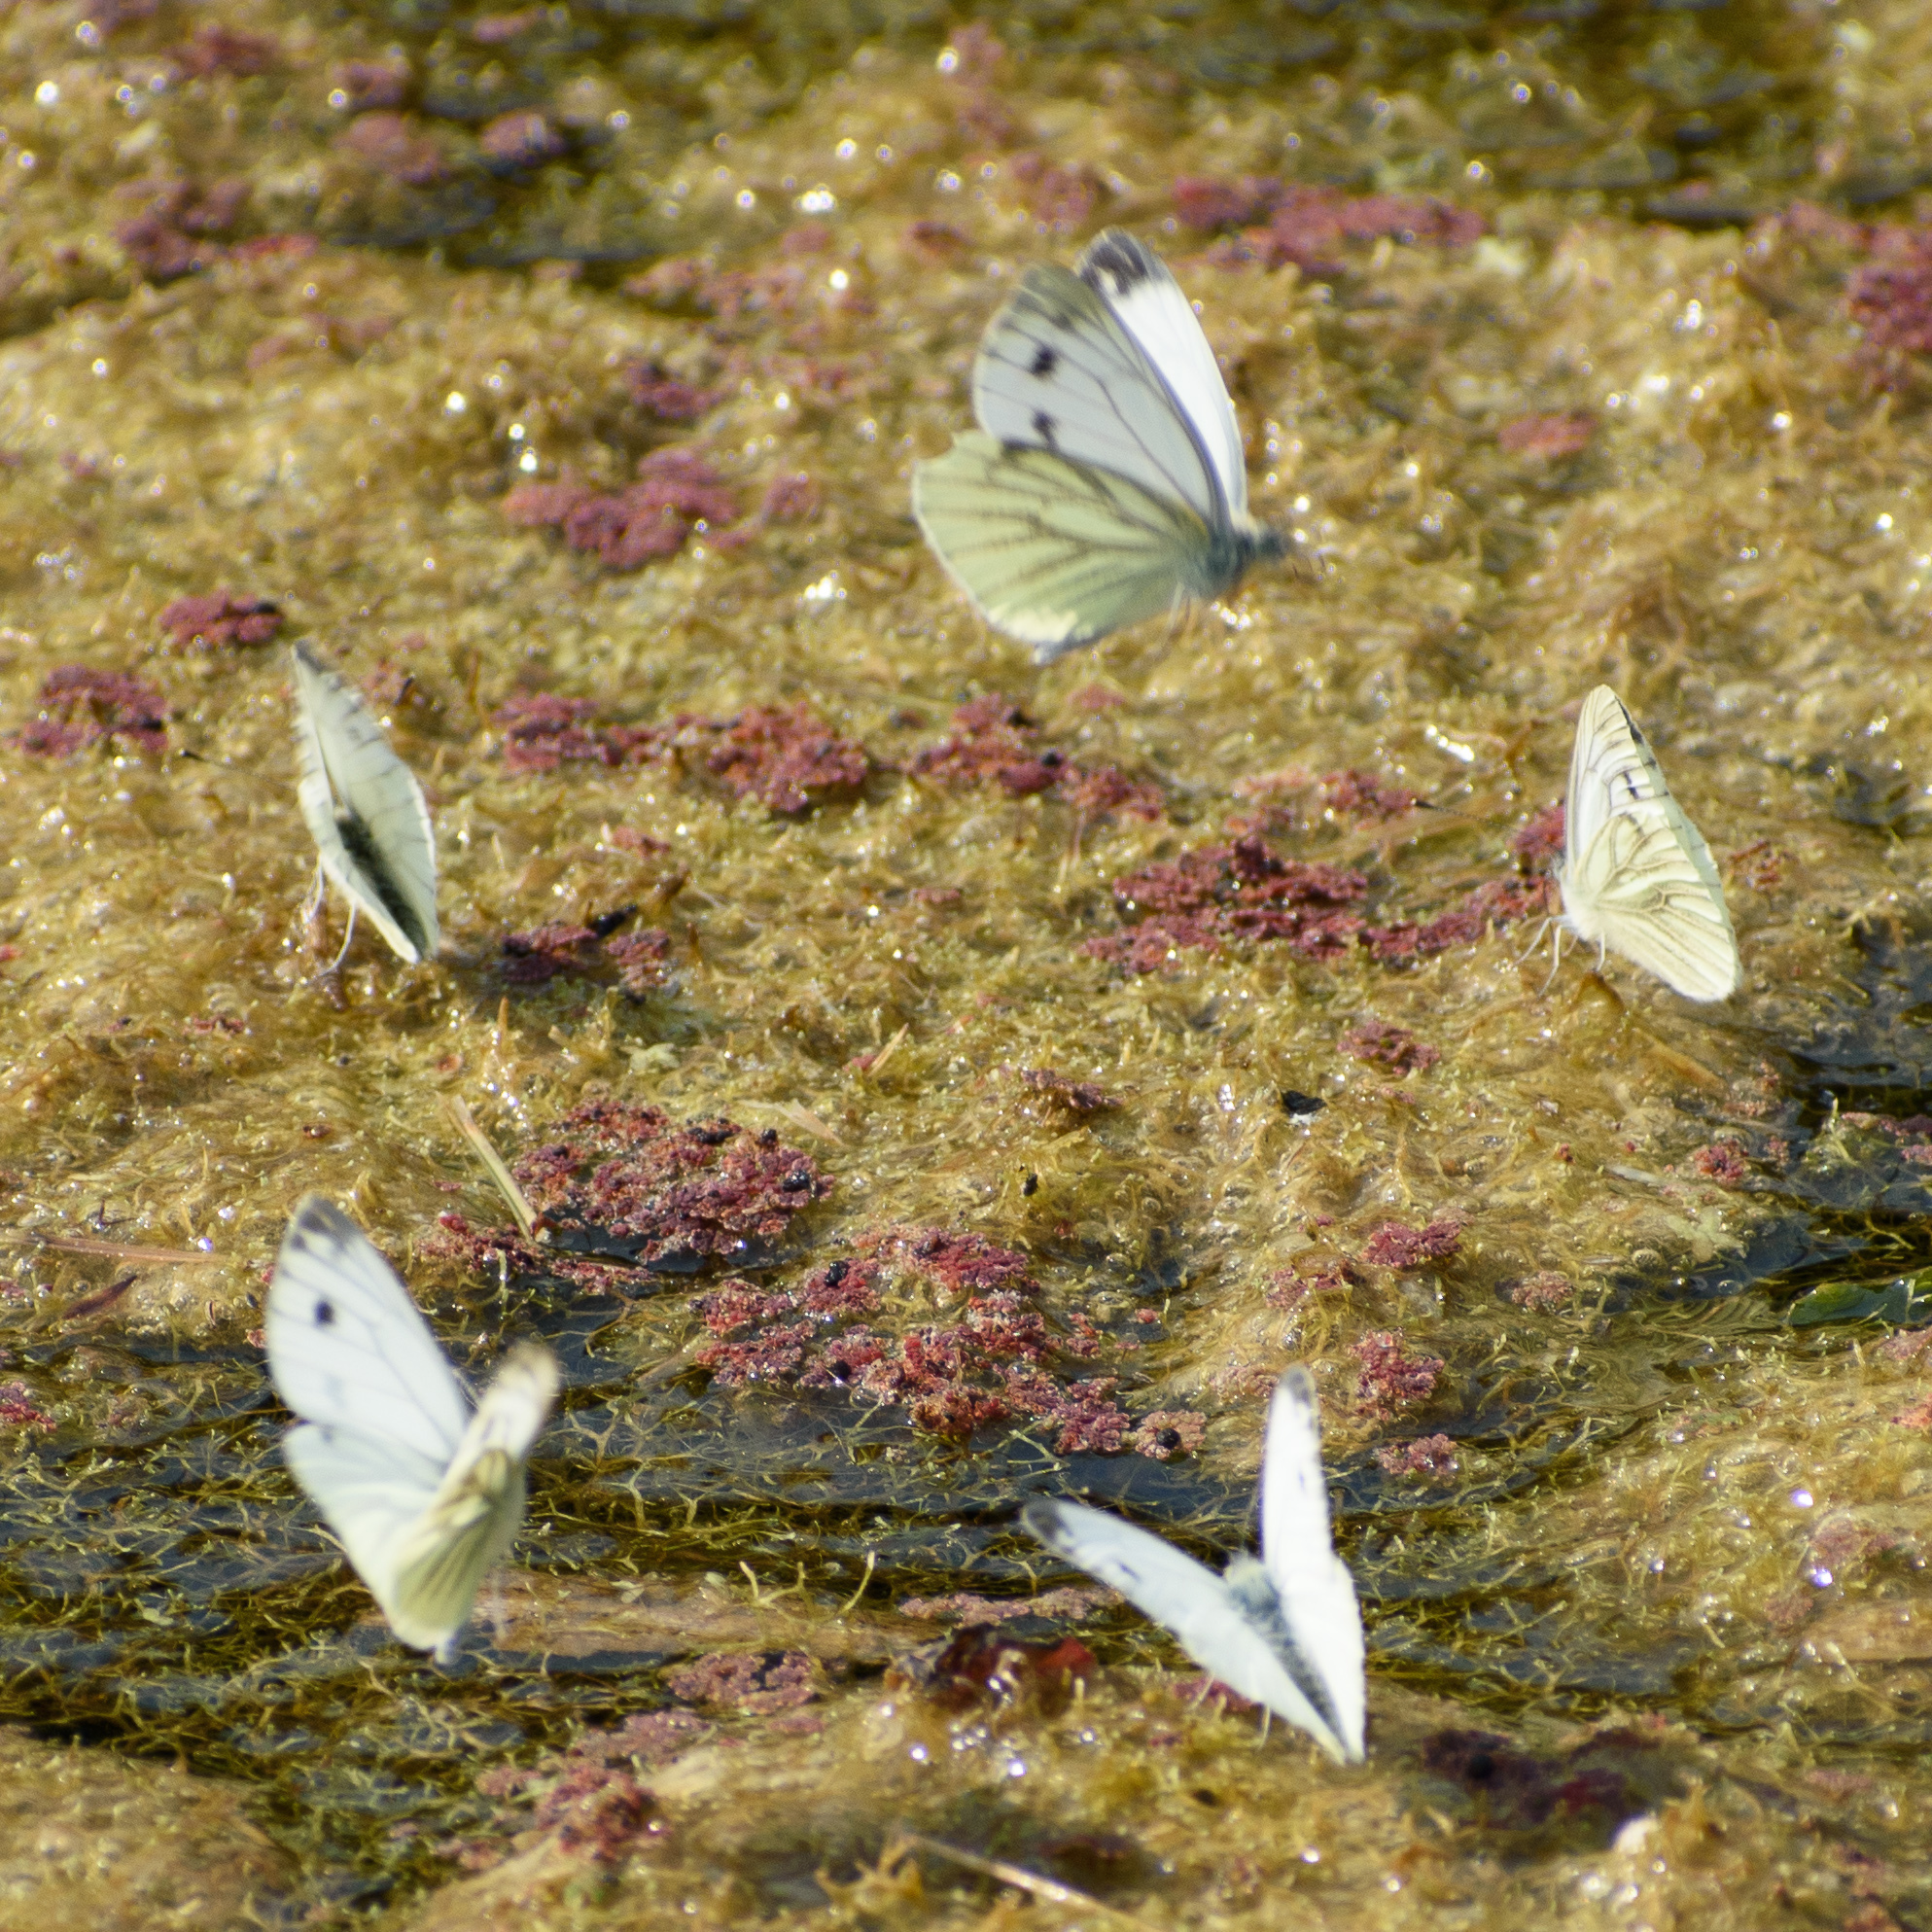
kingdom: Animalia
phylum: Arthropoda
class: Insecta
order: Lepidoptera
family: Pieridae
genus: Pieris
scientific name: Pieris napi
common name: Green-veined white
